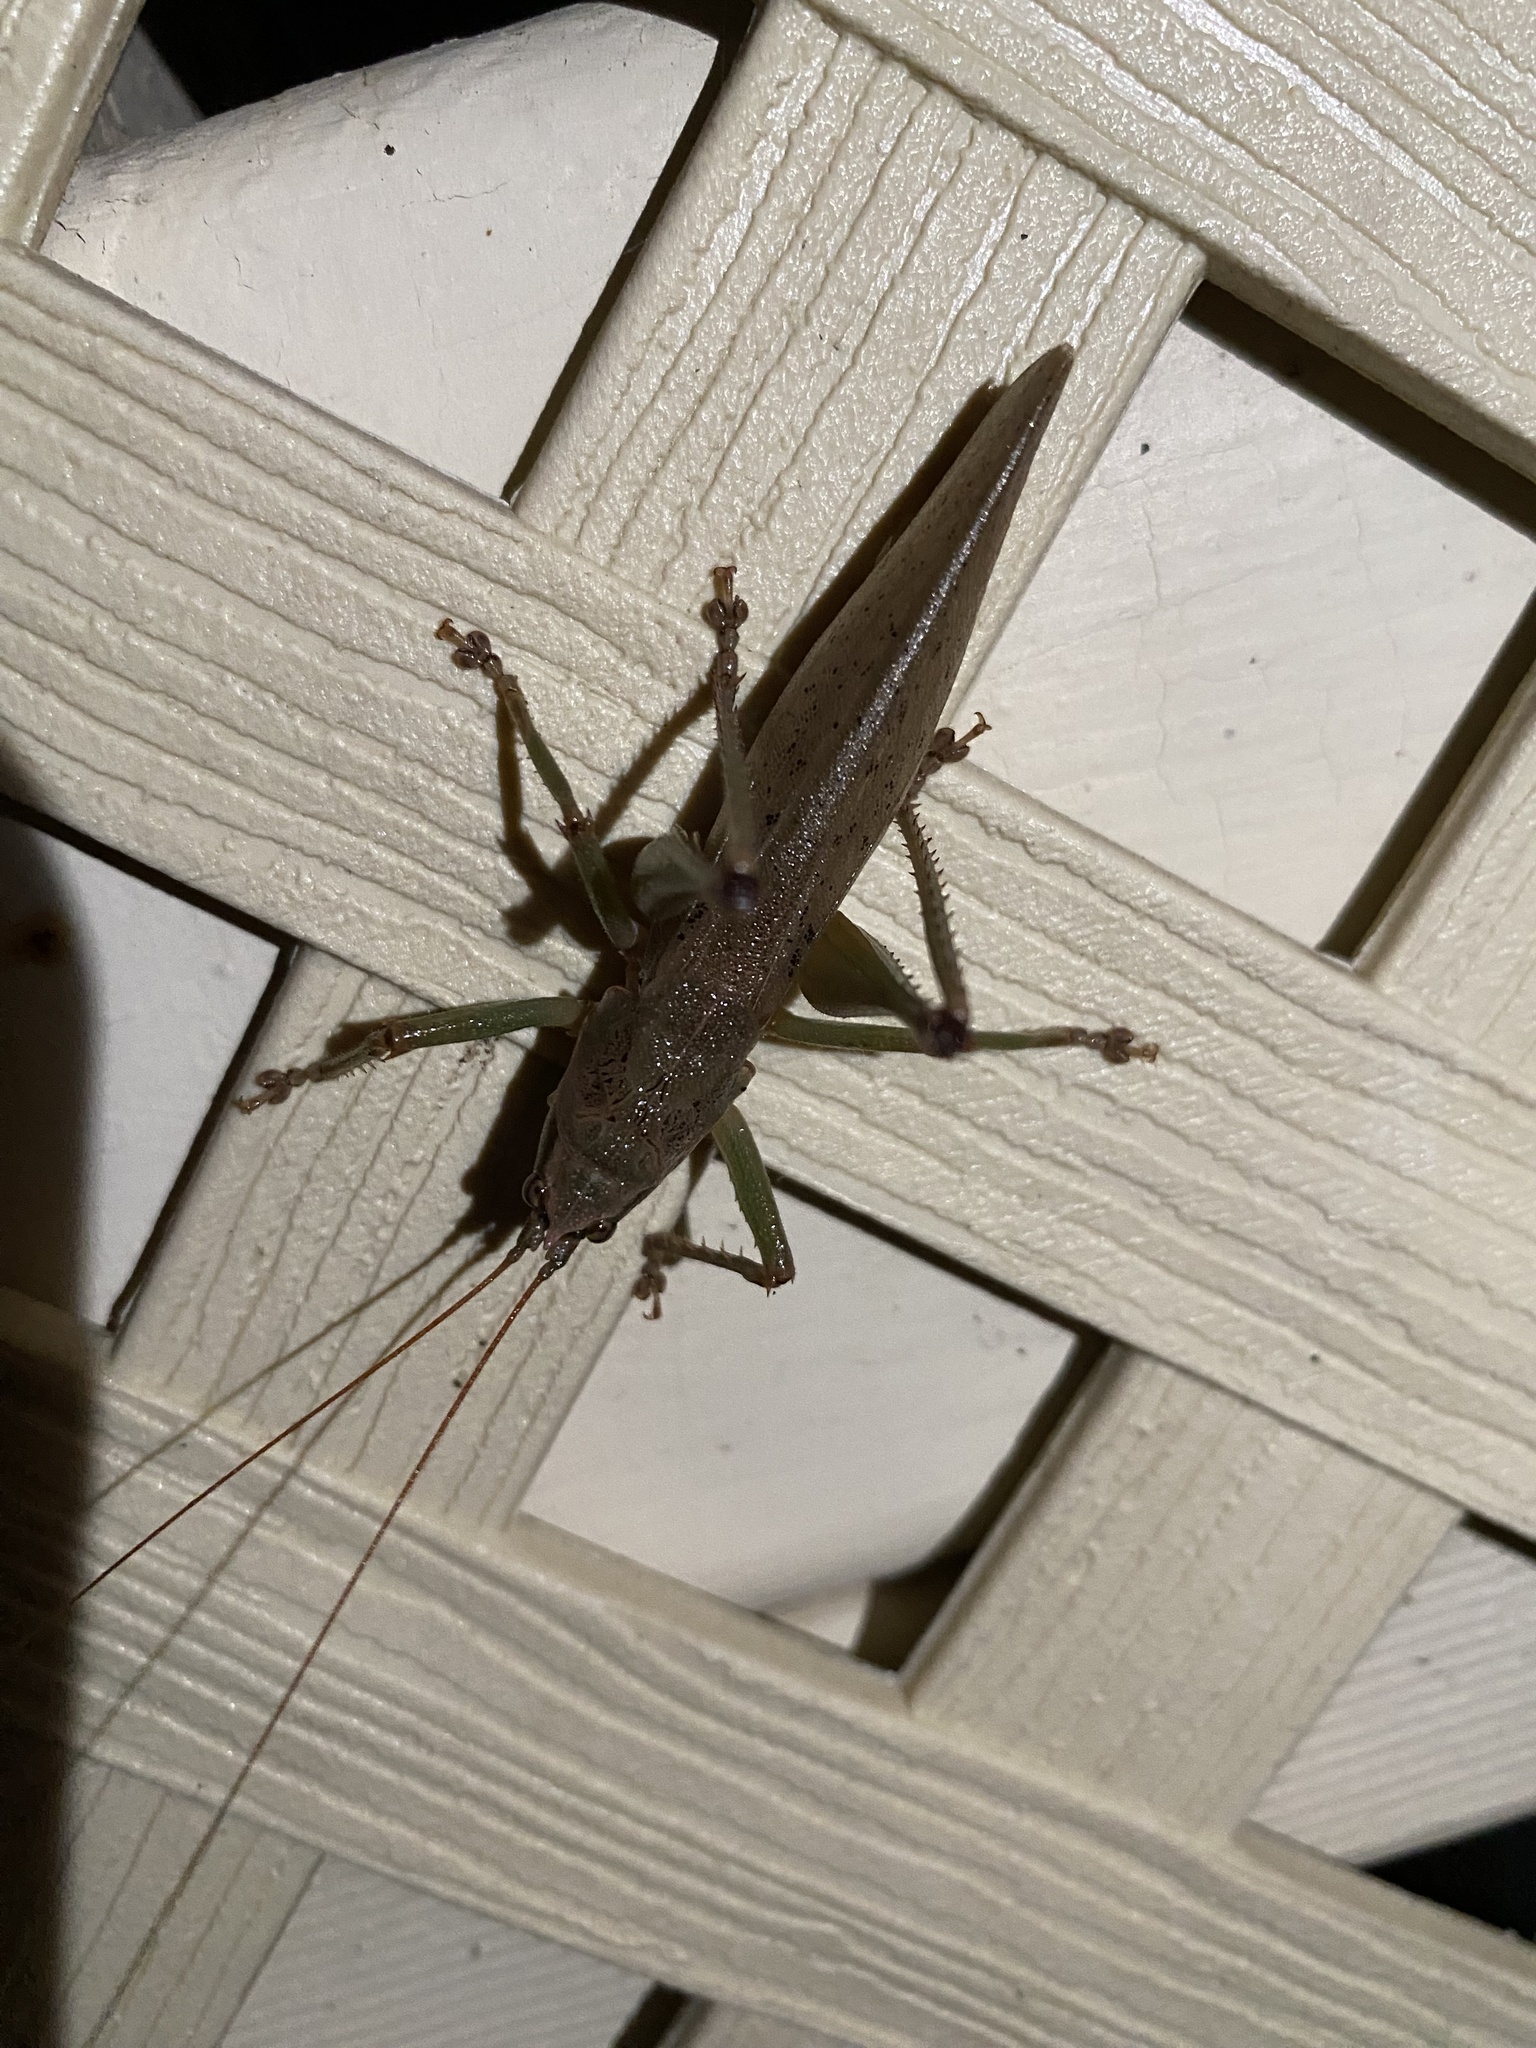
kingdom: Animalia
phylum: Arthropoda
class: Insecta
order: Orthoptera
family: Tettigoniidae
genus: Austrosalomona
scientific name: Austrosalomona falcata
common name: Olive-green coastal katydid
